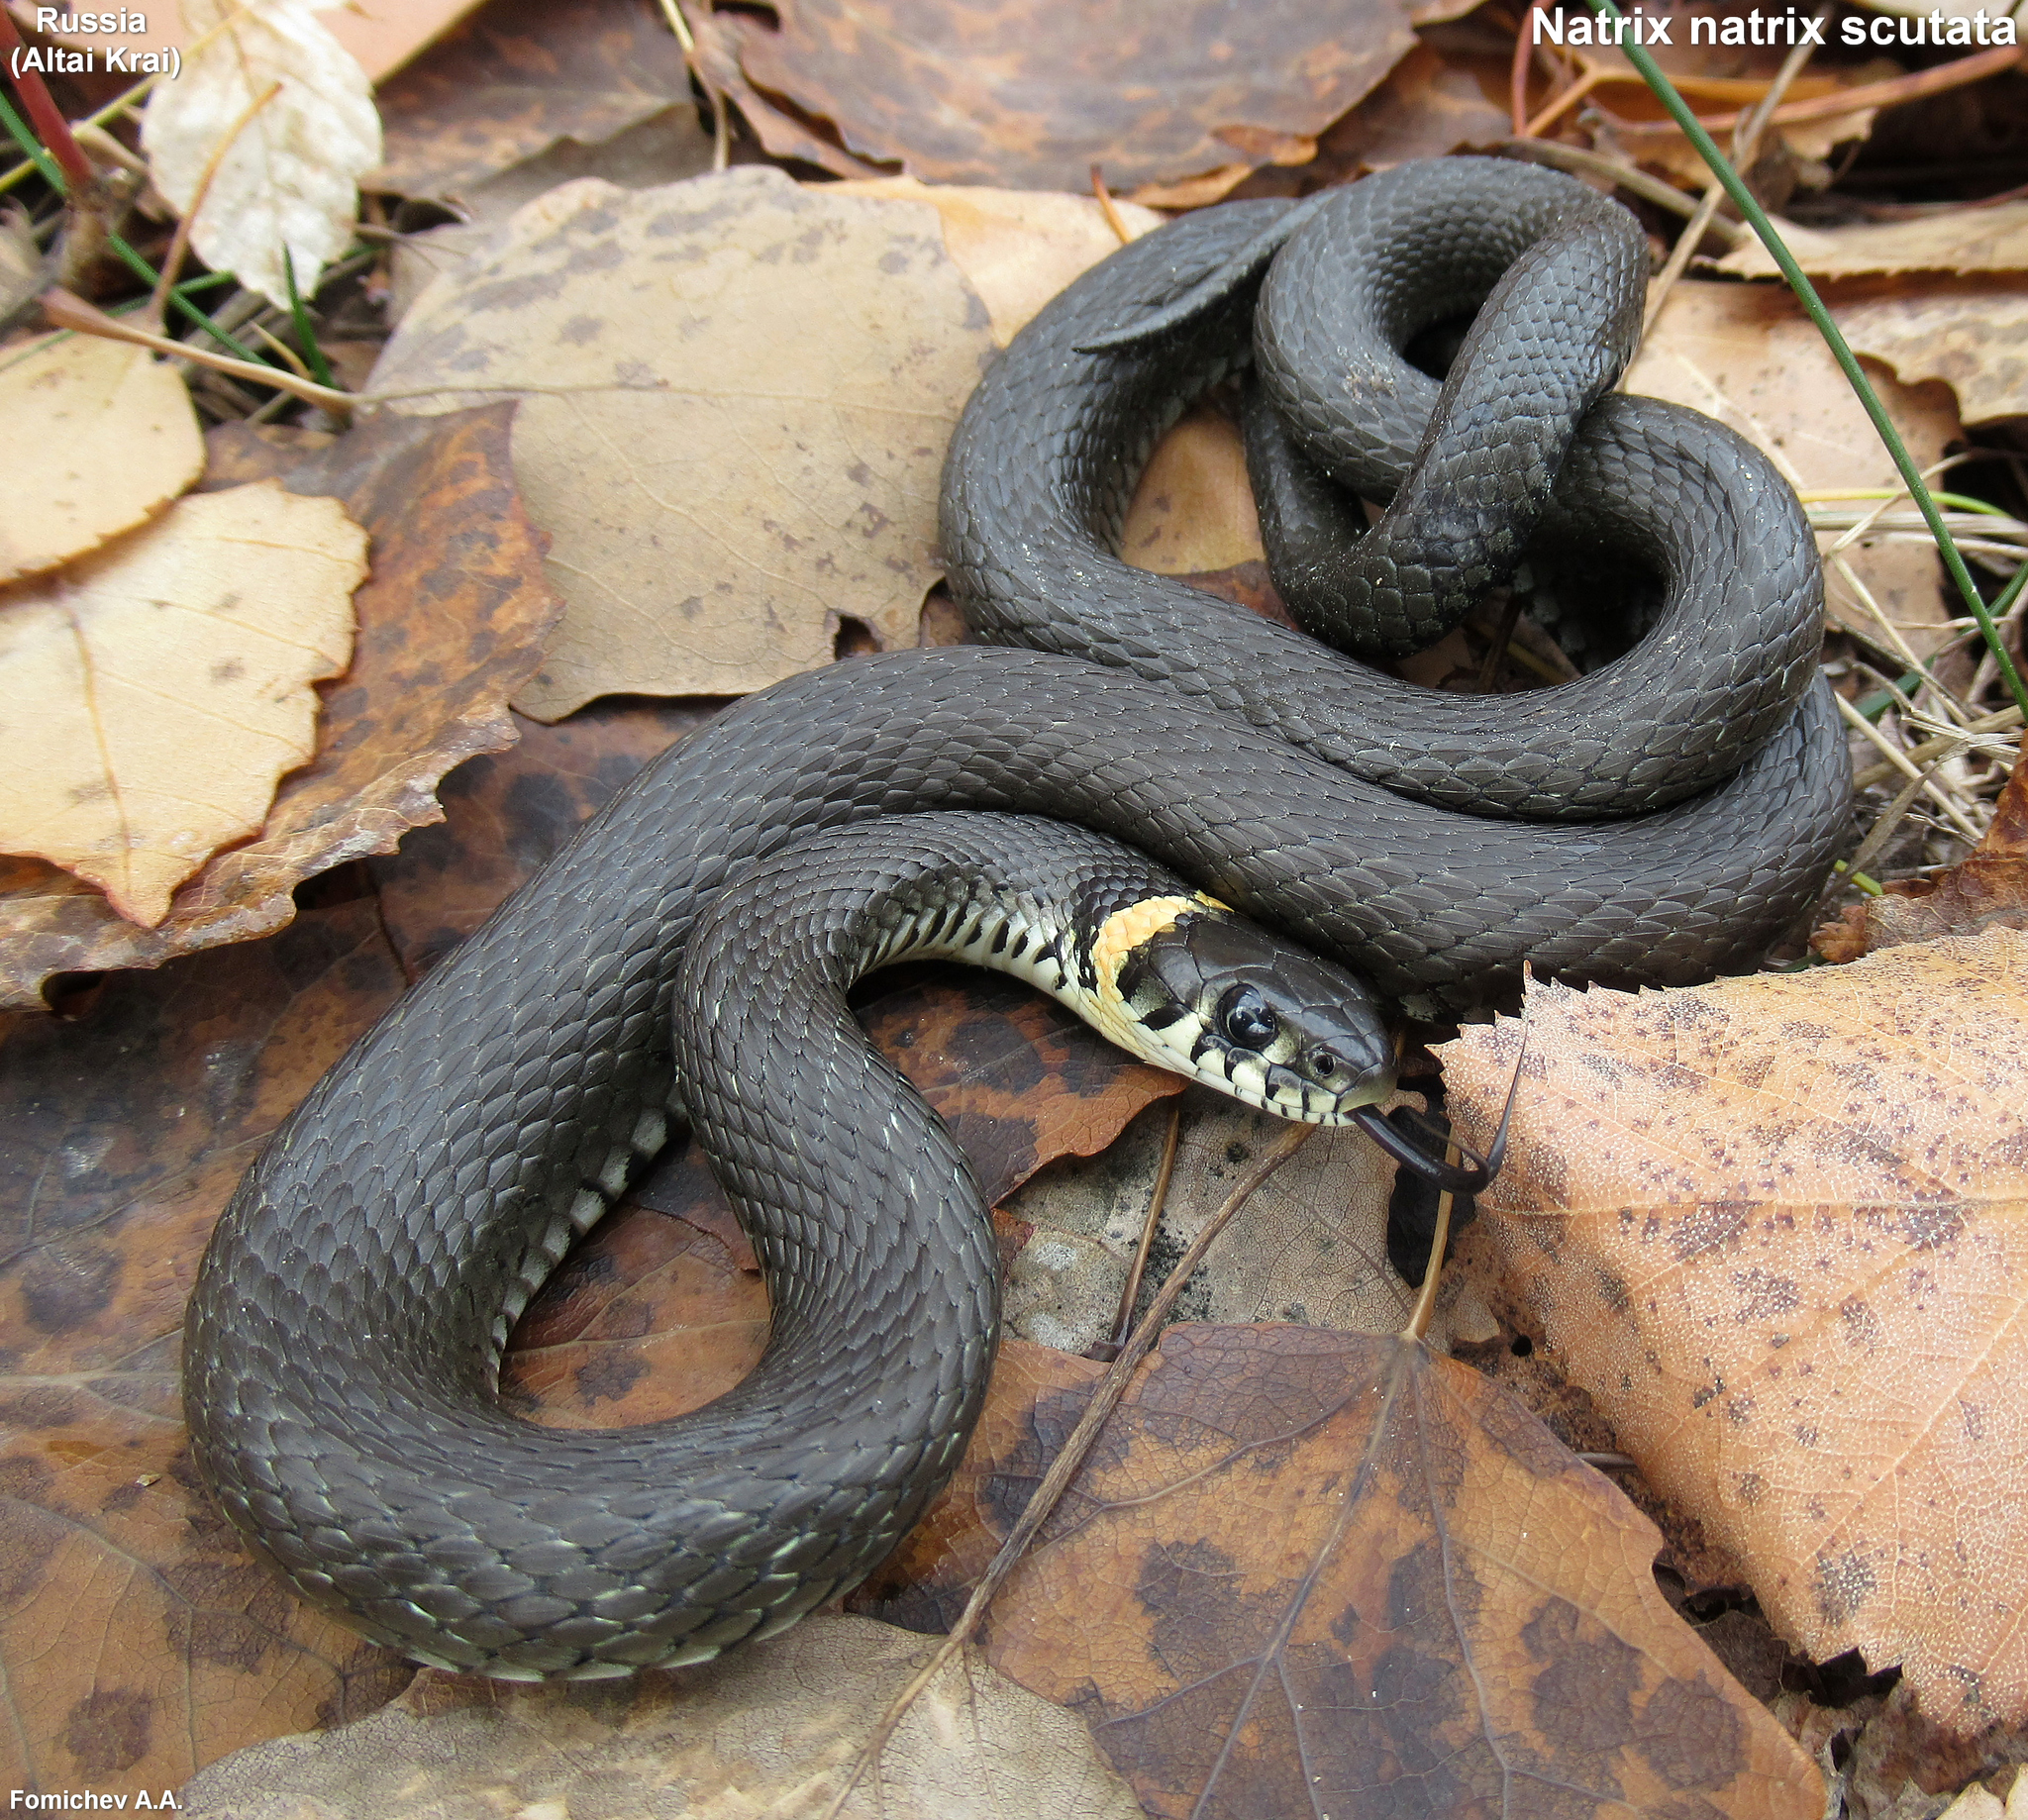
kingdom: Animalia
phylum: Chordata
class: Squamata
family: Colubridae
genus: Natrix
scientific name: Natrix natrix
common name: Grass snake
